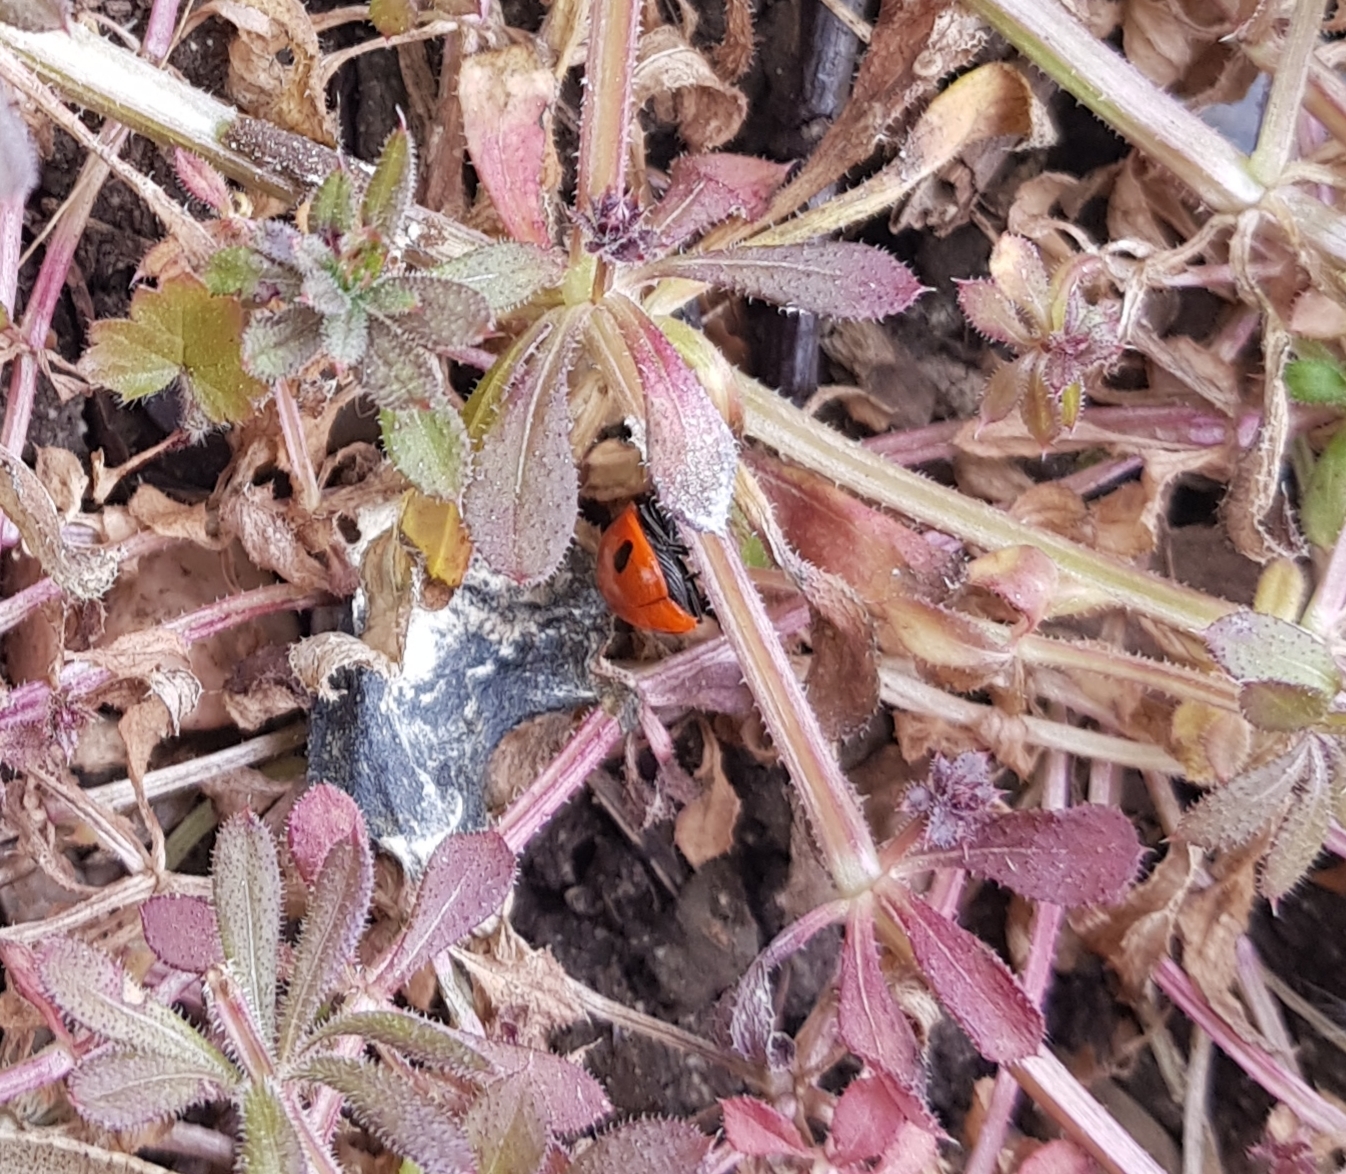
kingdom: Animalia
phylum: Arthropoda
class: Insecta
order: Coleoptera
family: Coccinellidae
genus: Coccinella
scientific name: Coccinella septempunctata
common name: Sevenspotted lady beetle
